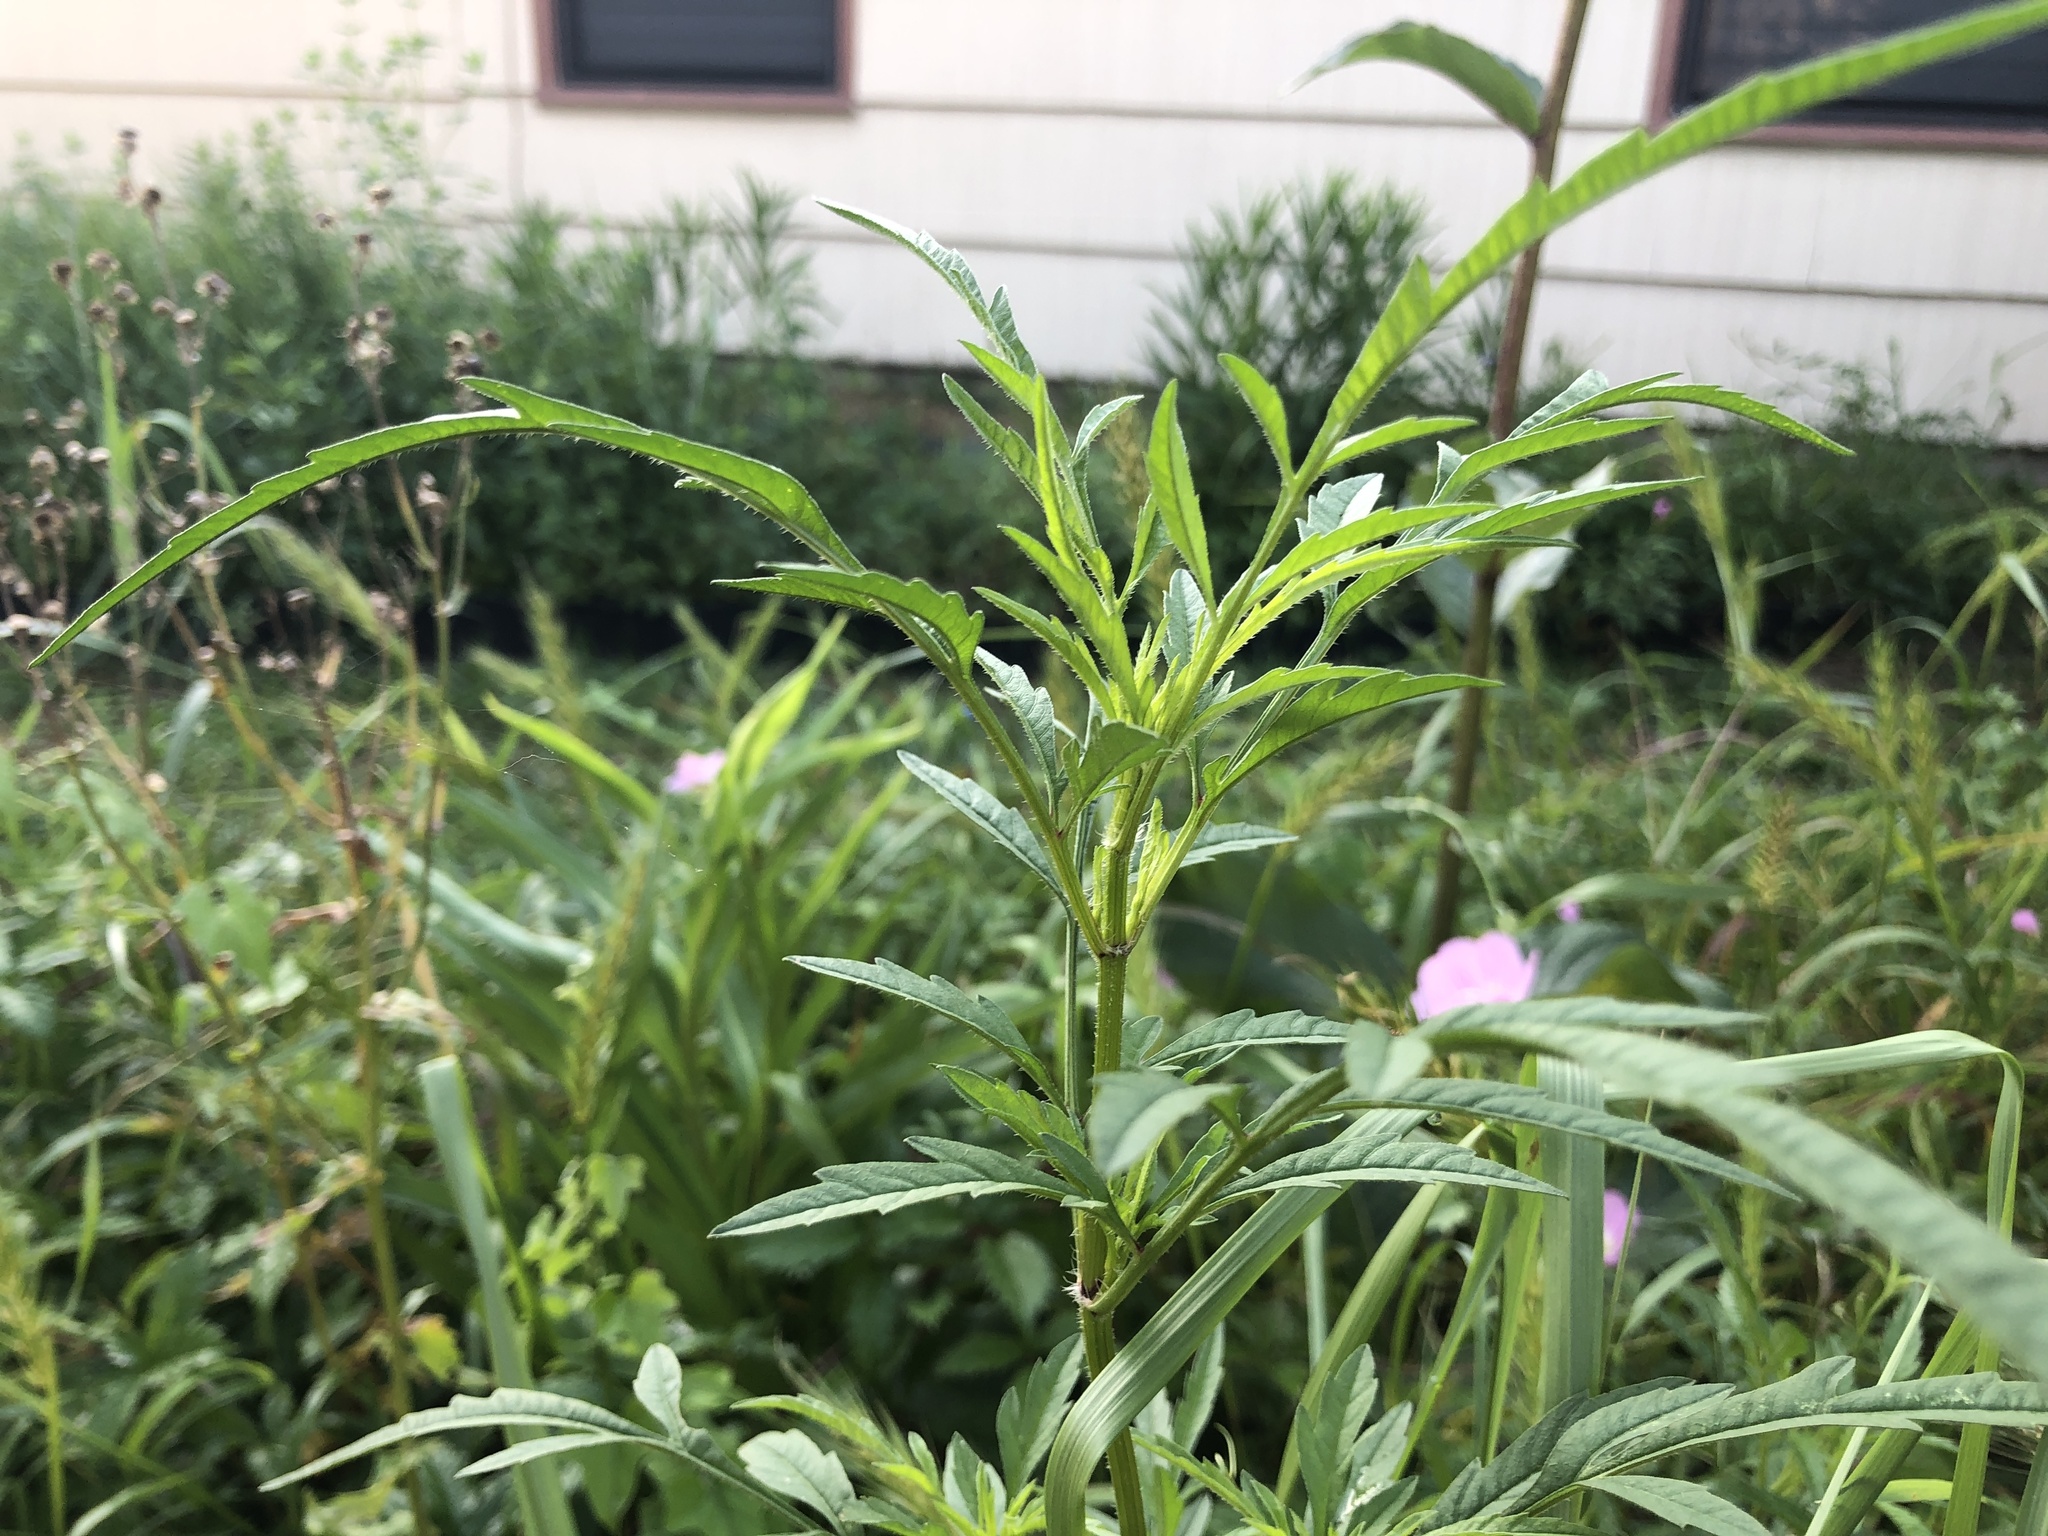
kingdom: Plantae
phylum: Tracheophyta
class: Magnoliopsida
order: Asterales
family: Asteraceae
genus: Bidens
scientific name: Bidens aristosa
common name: Western tickseed
